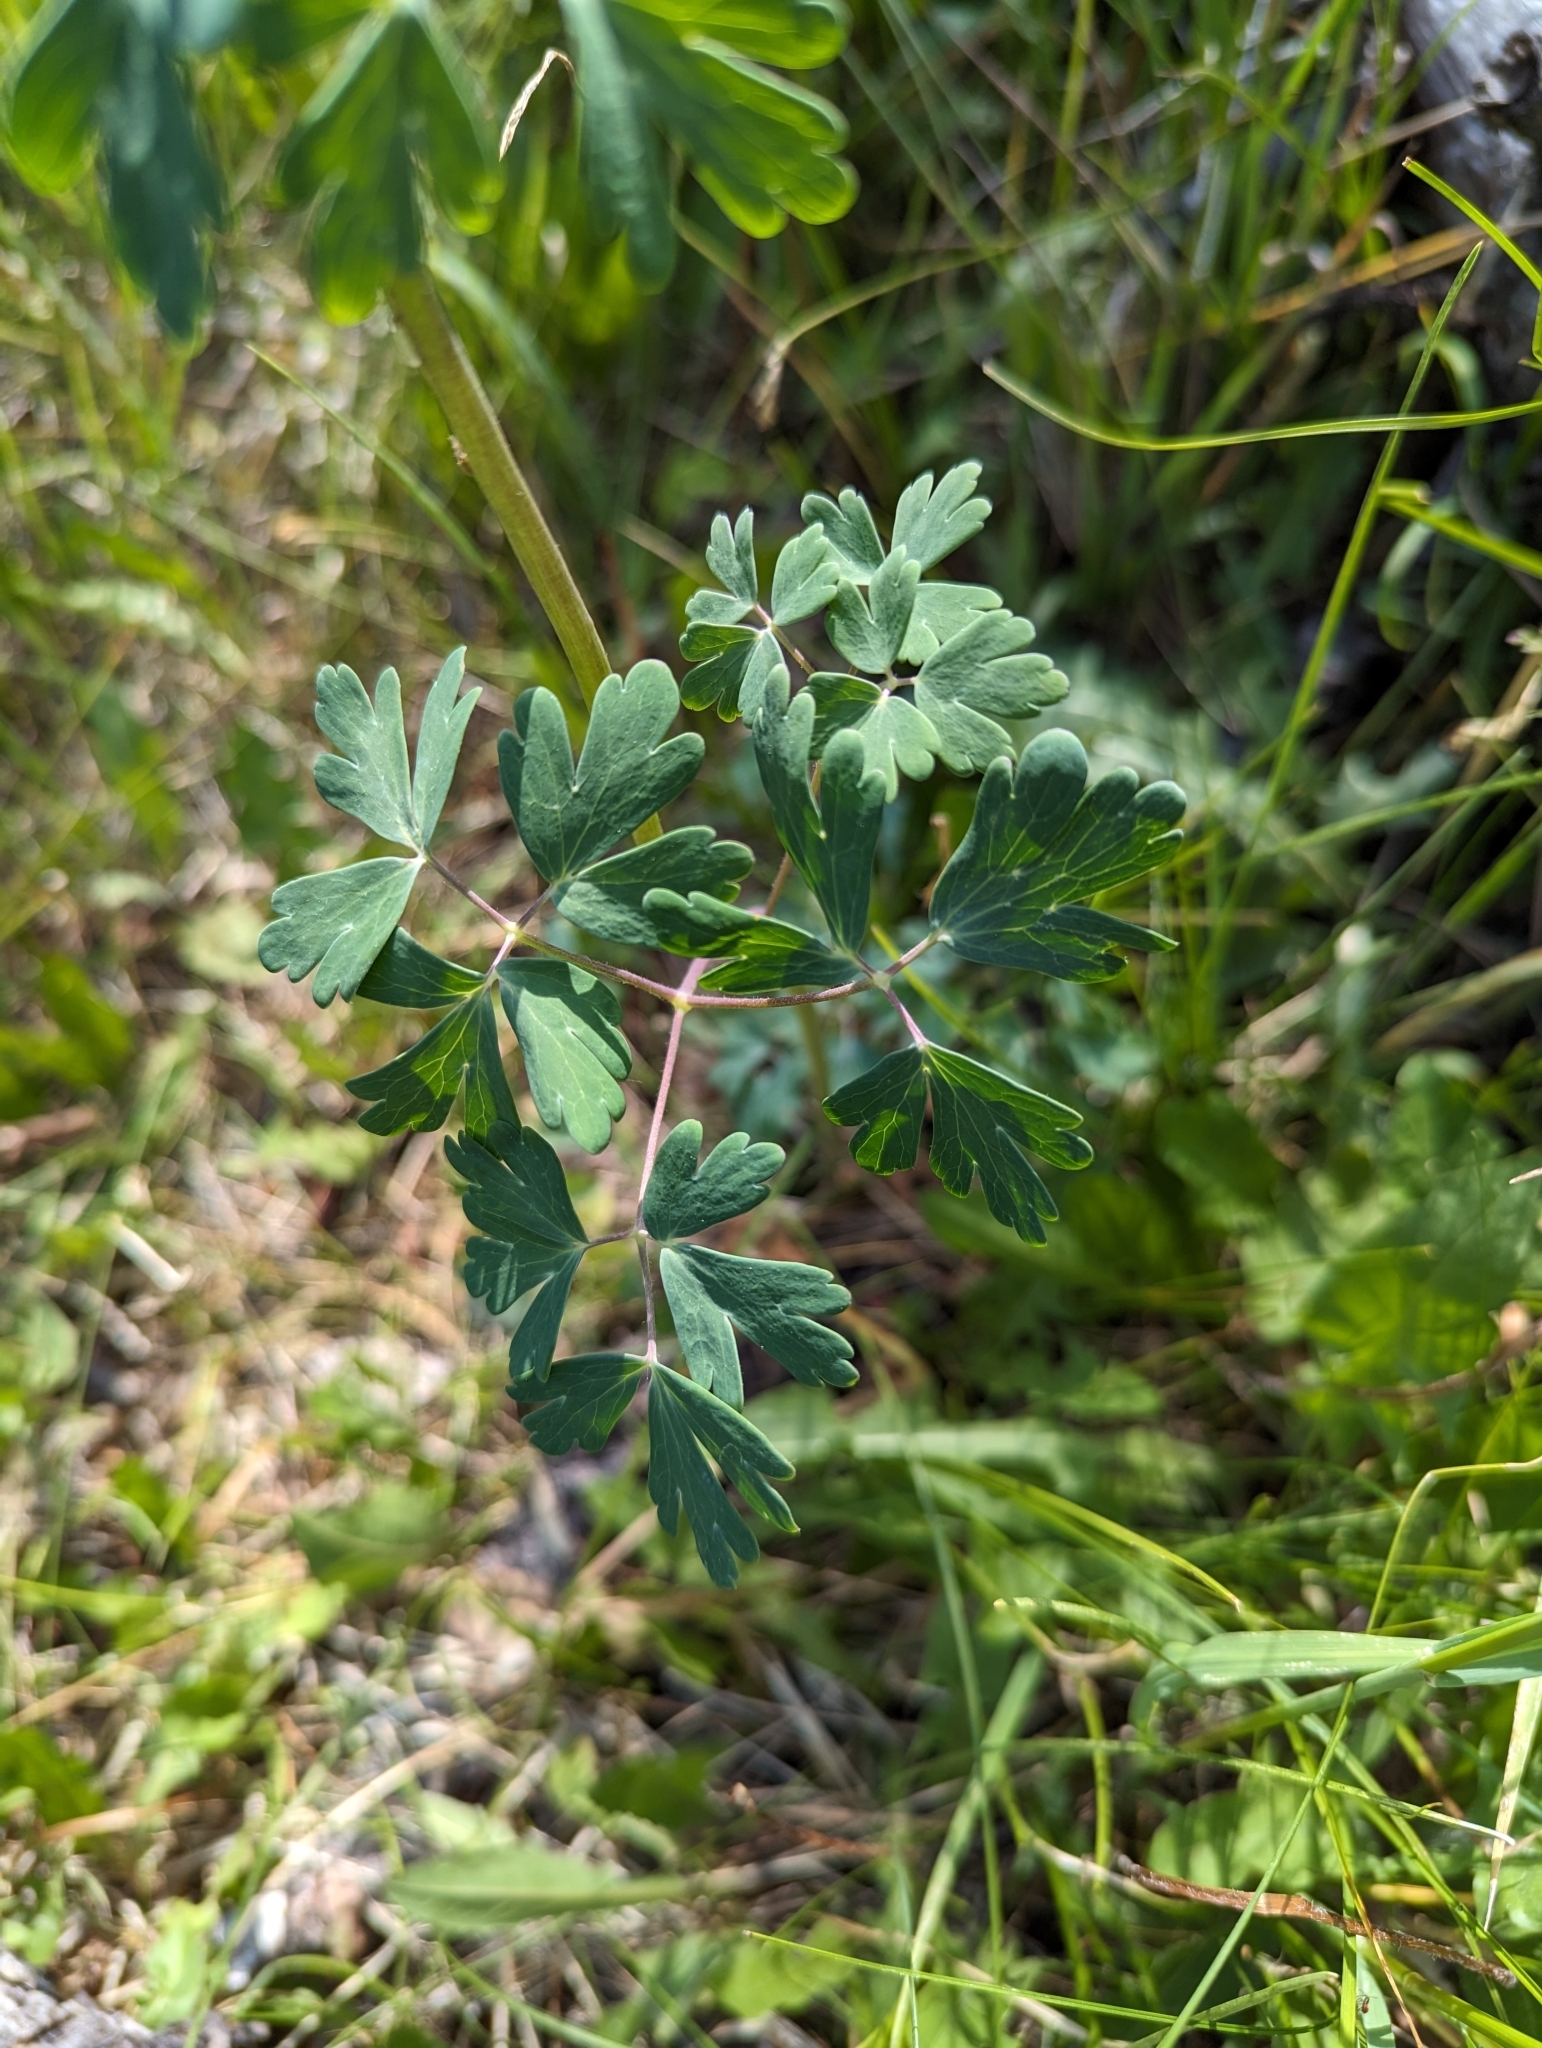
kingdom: Plantae
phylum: Tracheophyta
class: Magnoliopsida
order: Ranunculales
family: Ranunculaceae
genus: Aquilegia
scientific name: Aquilegia coerulea
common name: Rocky mountain columbine
